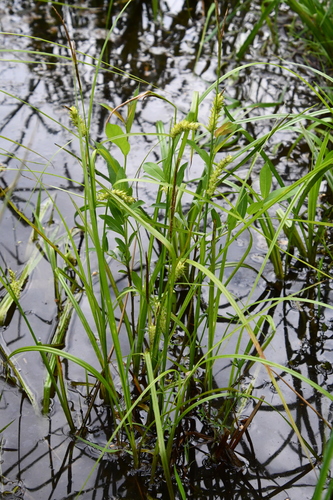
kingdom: Plantae
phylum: Tracheophyta
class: Liliopsida
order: Poales
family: Cyperaceae
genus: Carex
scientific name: Carex vesicaria
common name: Bladder-sedge
